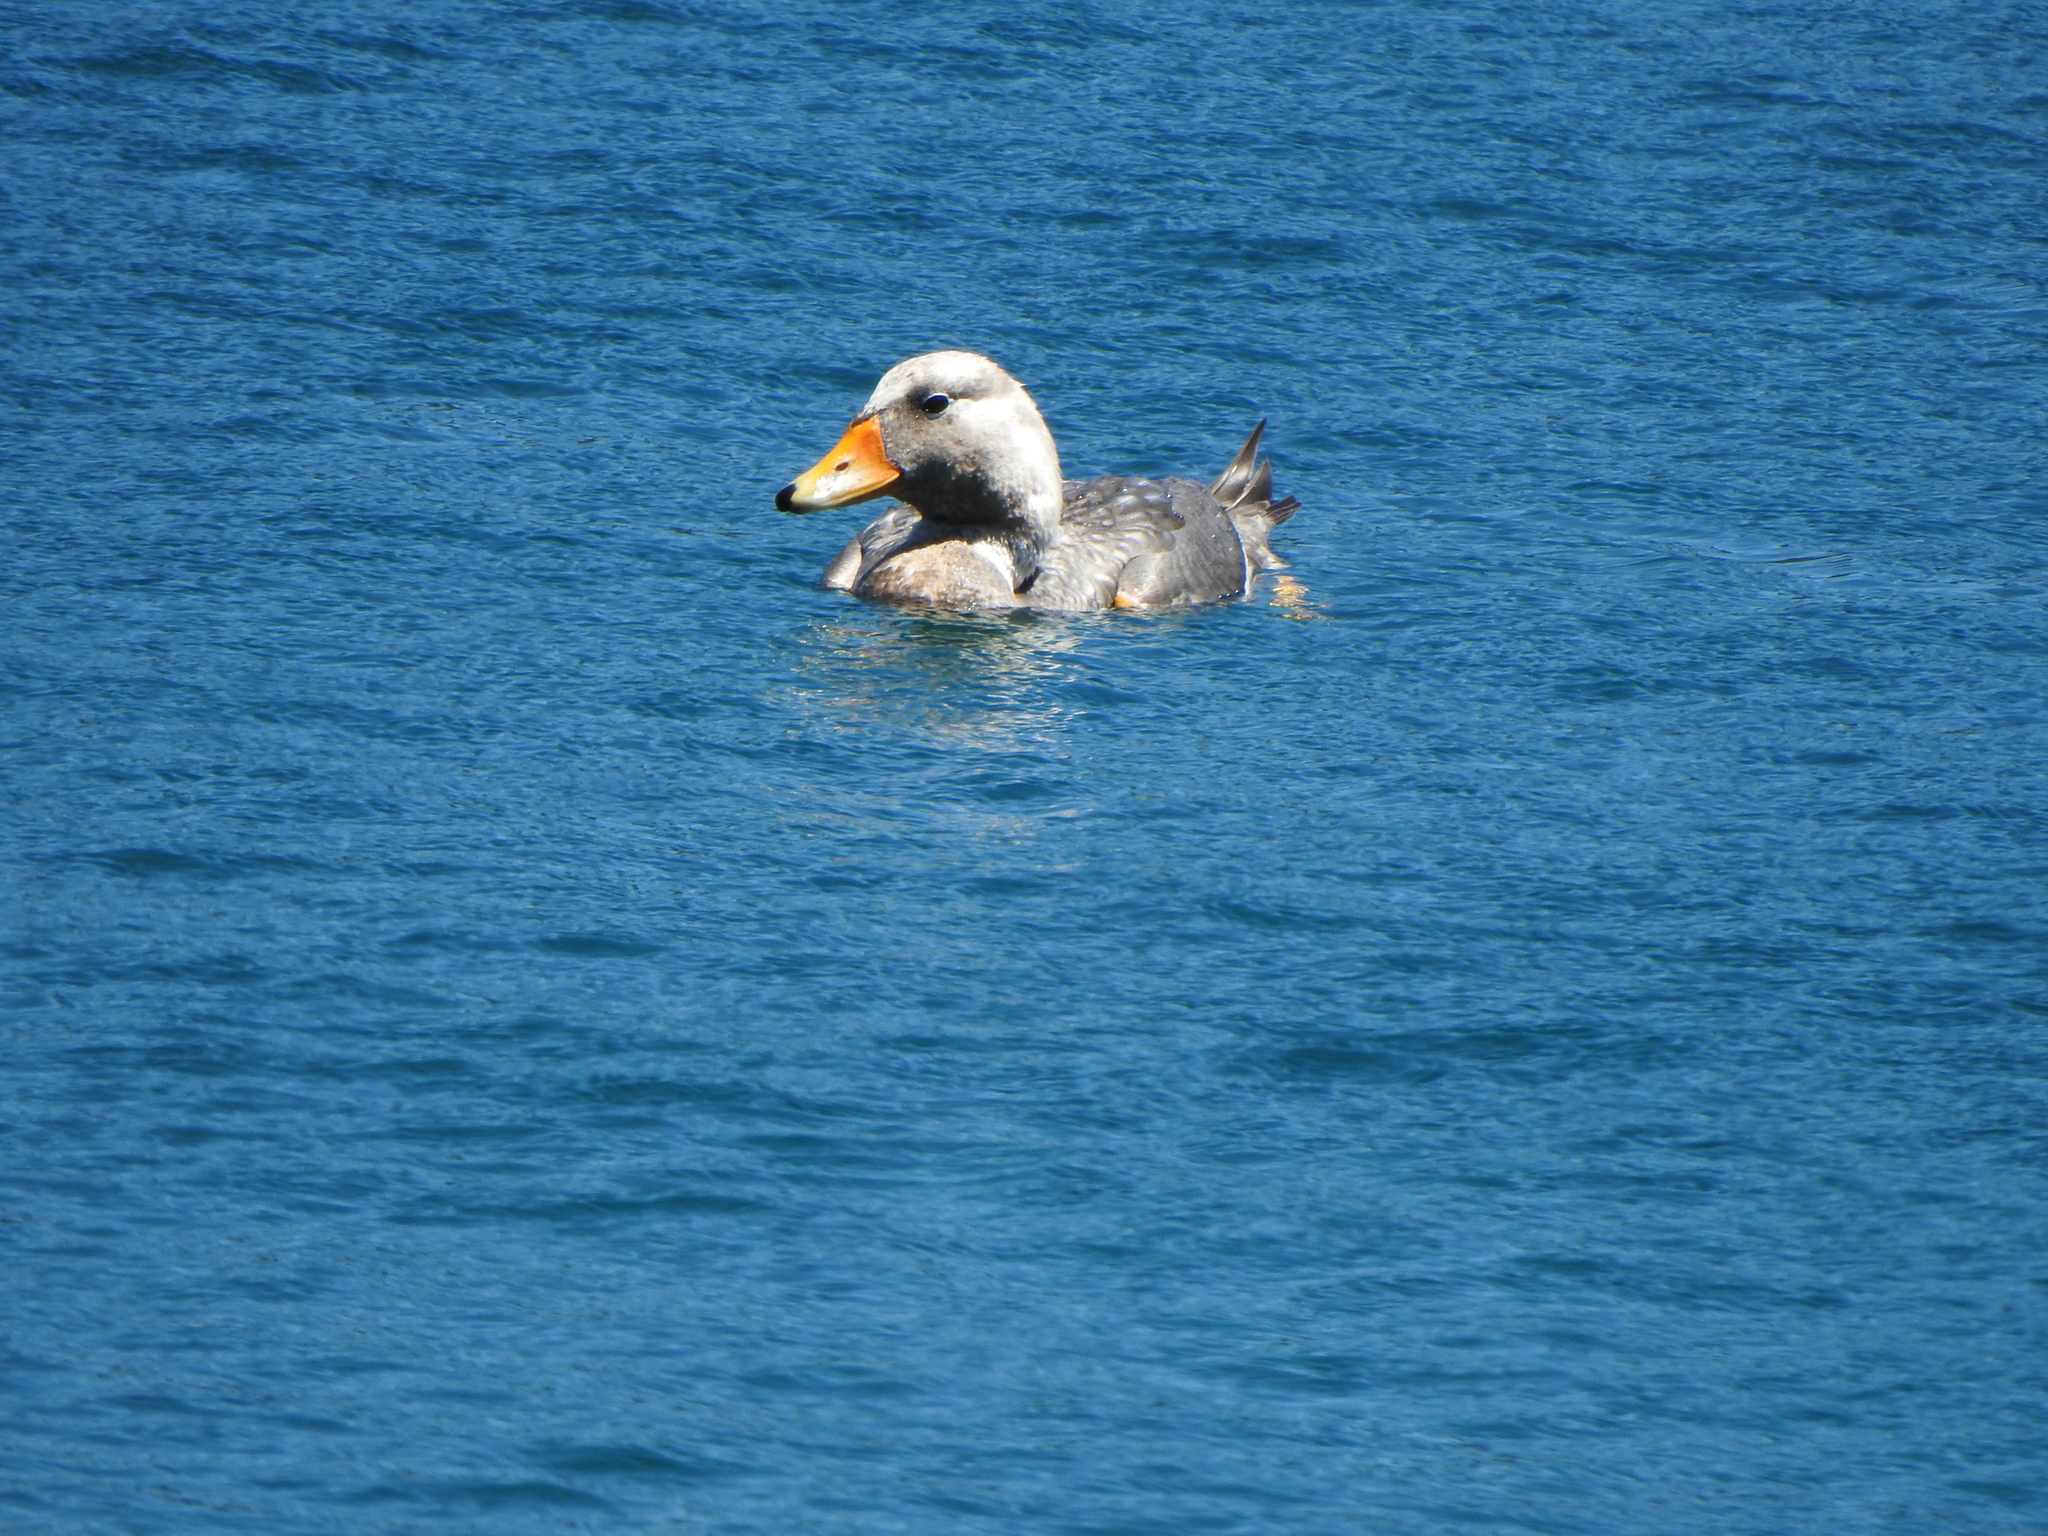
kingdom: Animalia
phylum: Chordata
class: Aves
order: Anseriformes
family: Anatidae
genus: Tachyeres
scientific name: Tachyeres patachonicus
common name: Flying steamer duck
